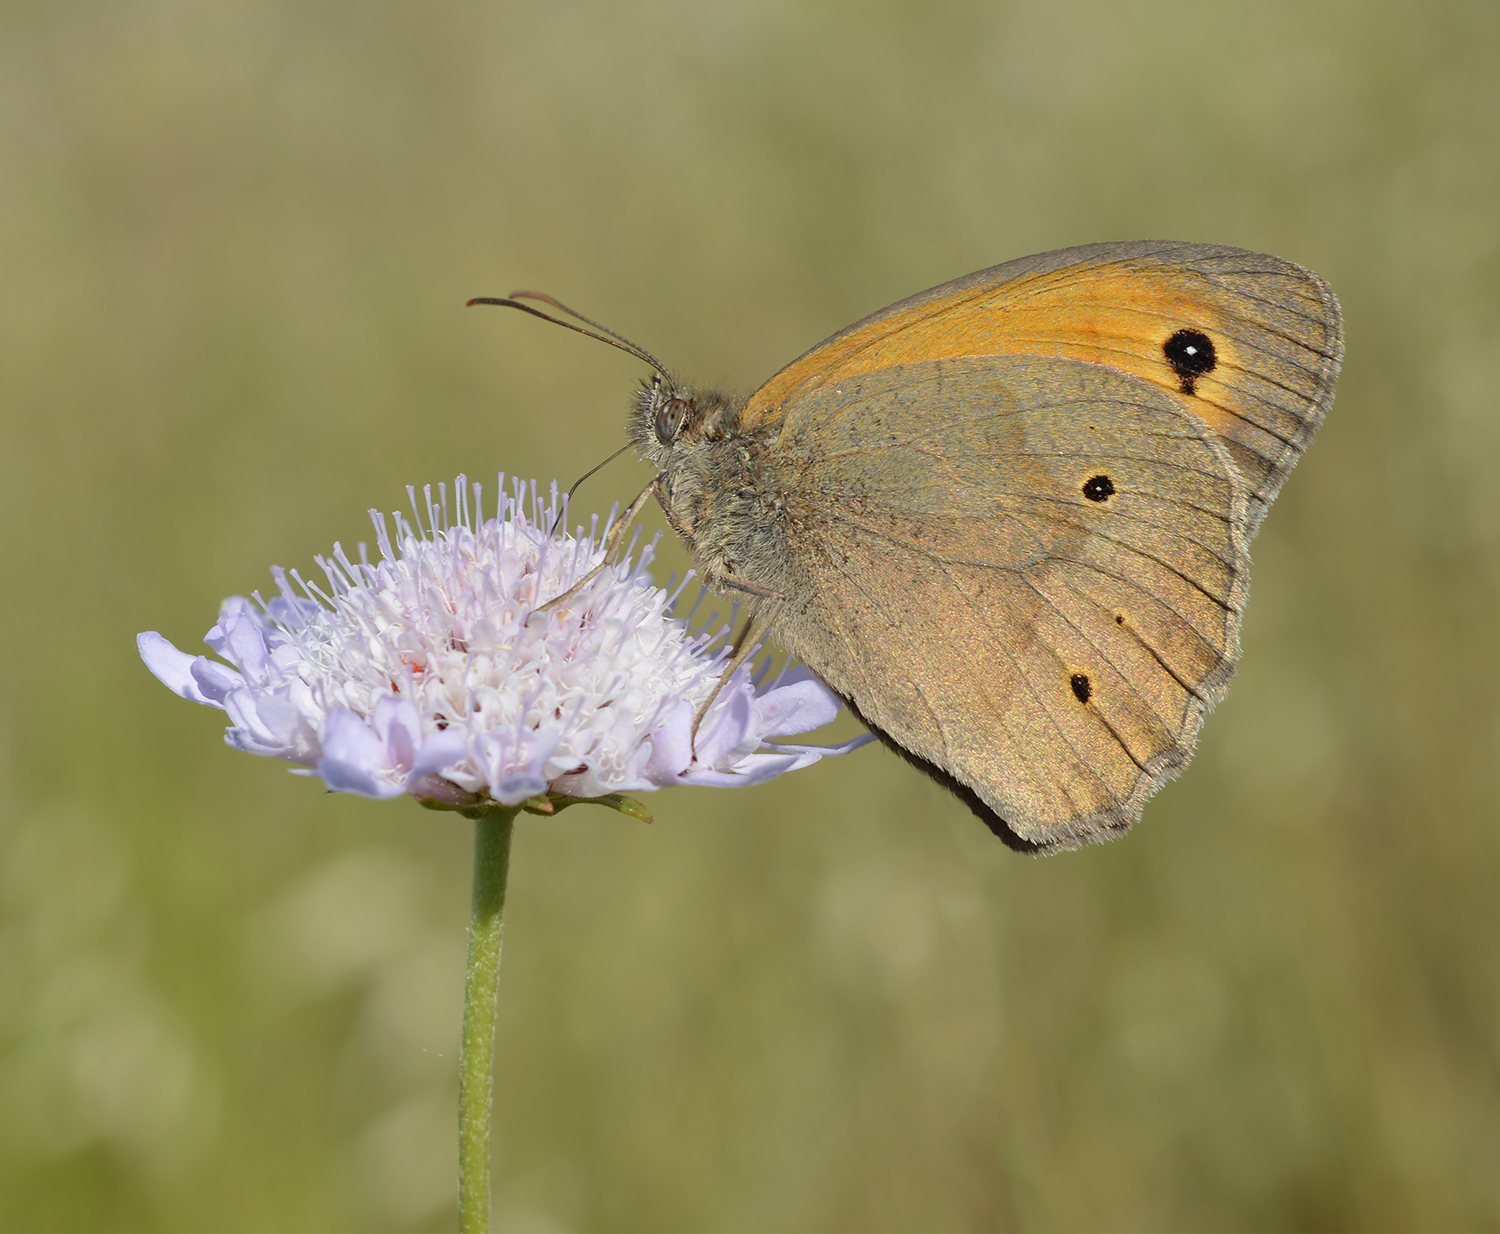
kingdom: Animalia
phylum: Arthropoda
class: Insecta
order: Lepidoptera
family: Nymphalidae
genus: Maniola
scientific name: Maniola jurtina
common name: Meadow brown
